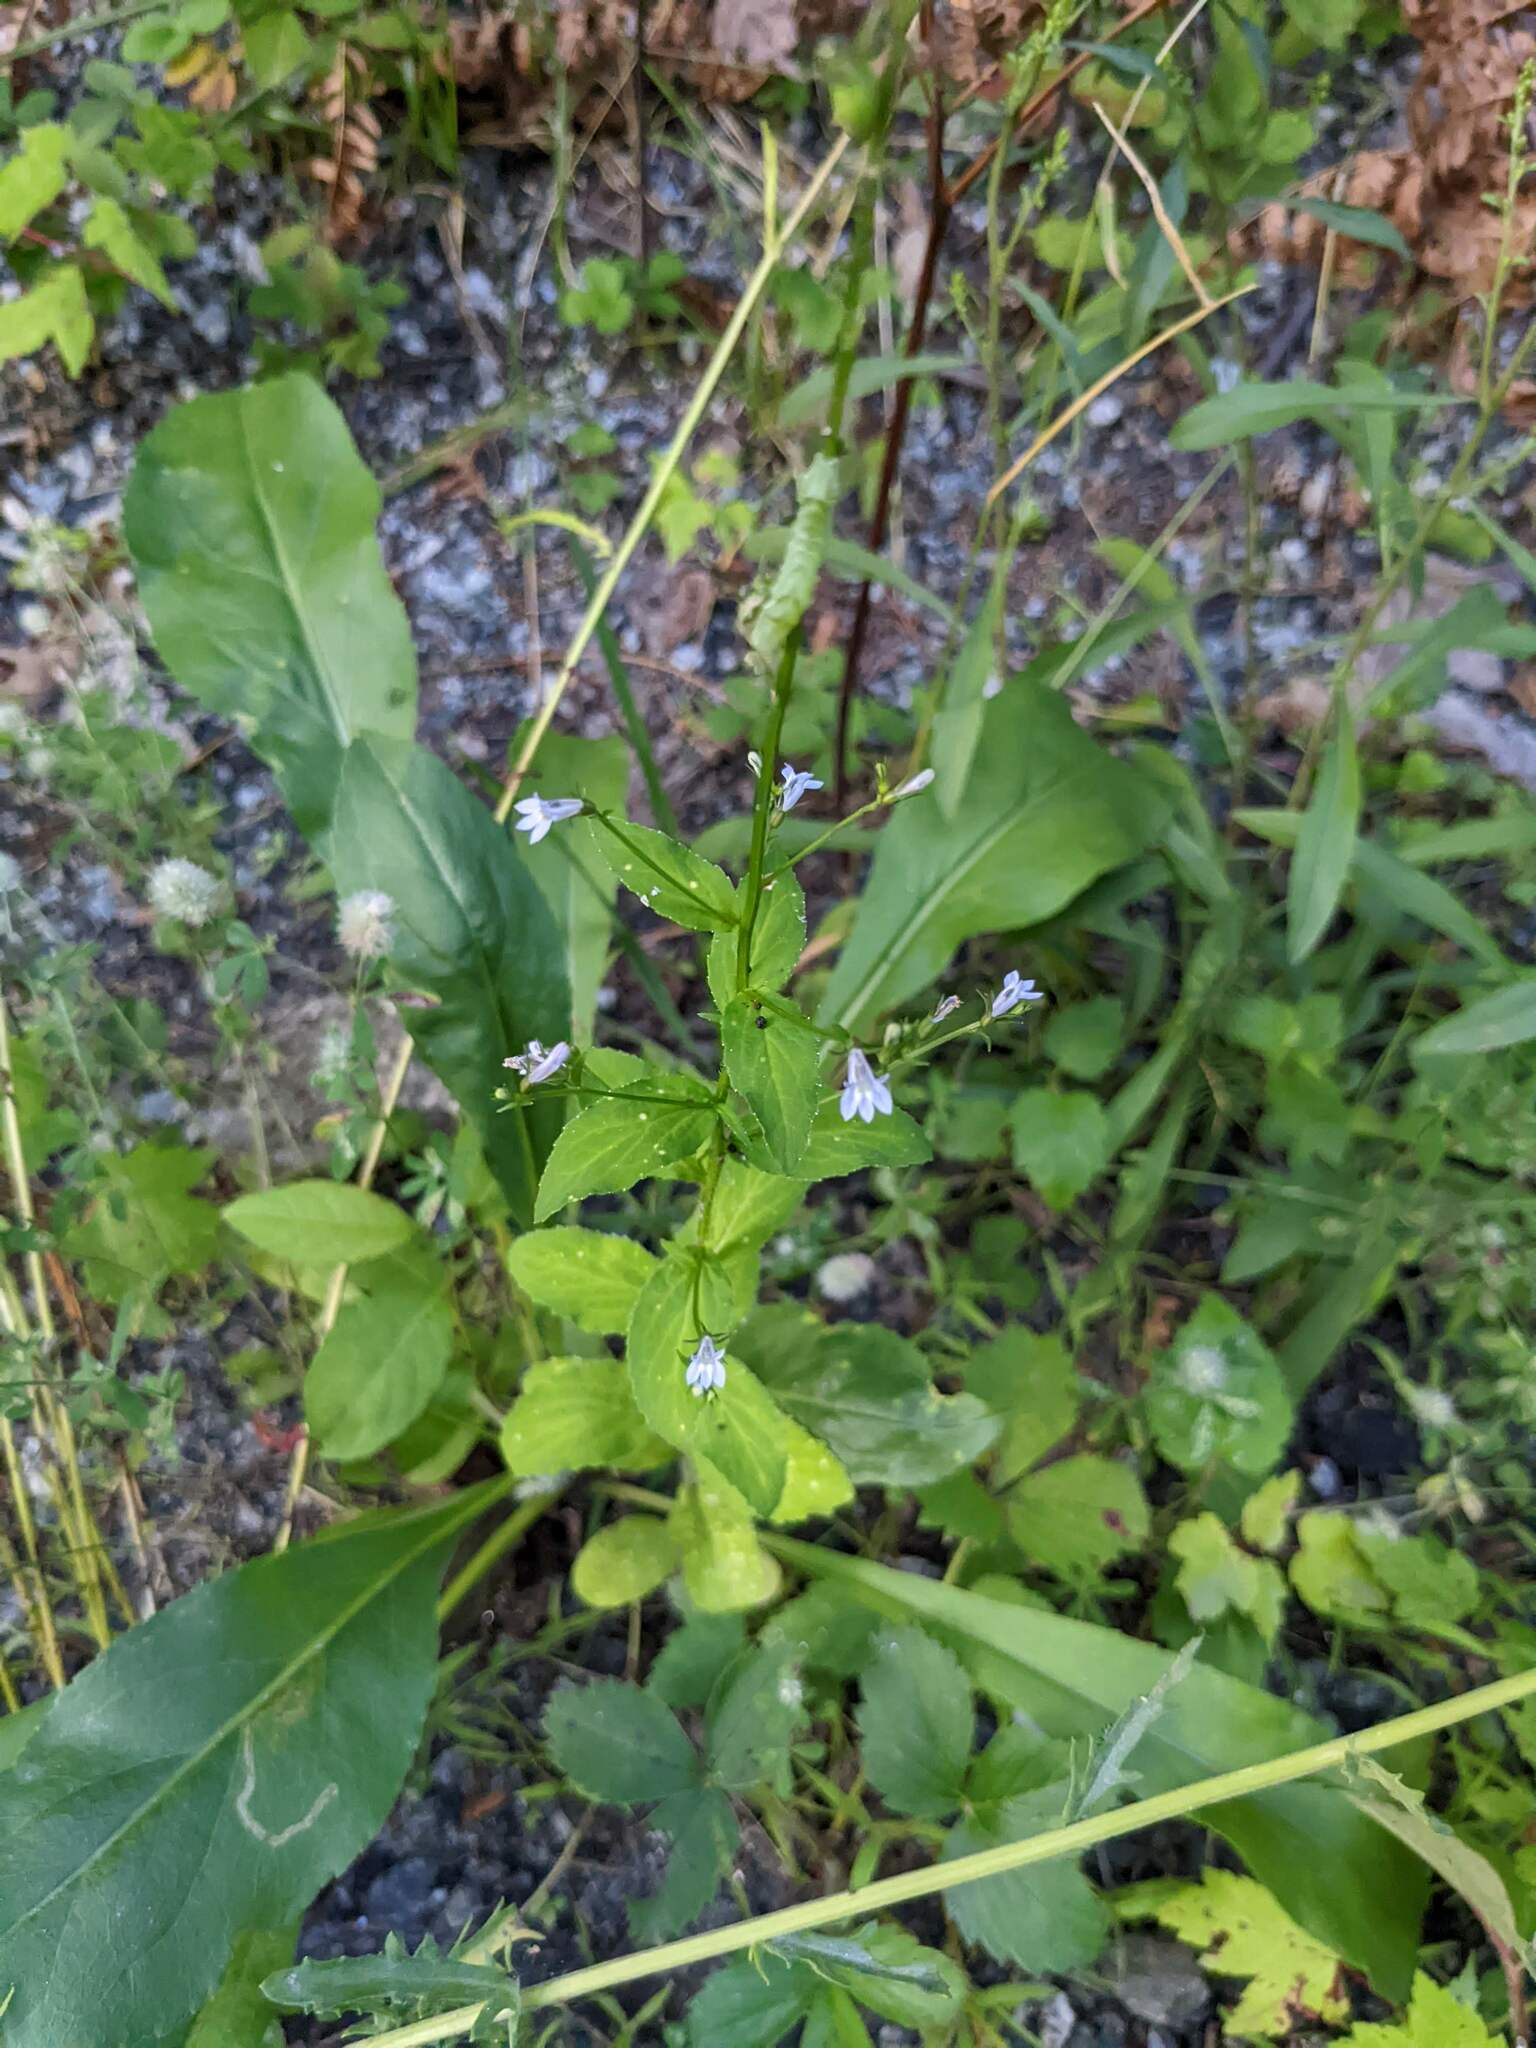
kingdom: Plantae
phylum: Tracheophyta
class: Magnoliopsida
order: Asterales
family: Campanulaceae
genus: Lobelia
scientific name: Lobelia inflata
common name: Indian tobacco
